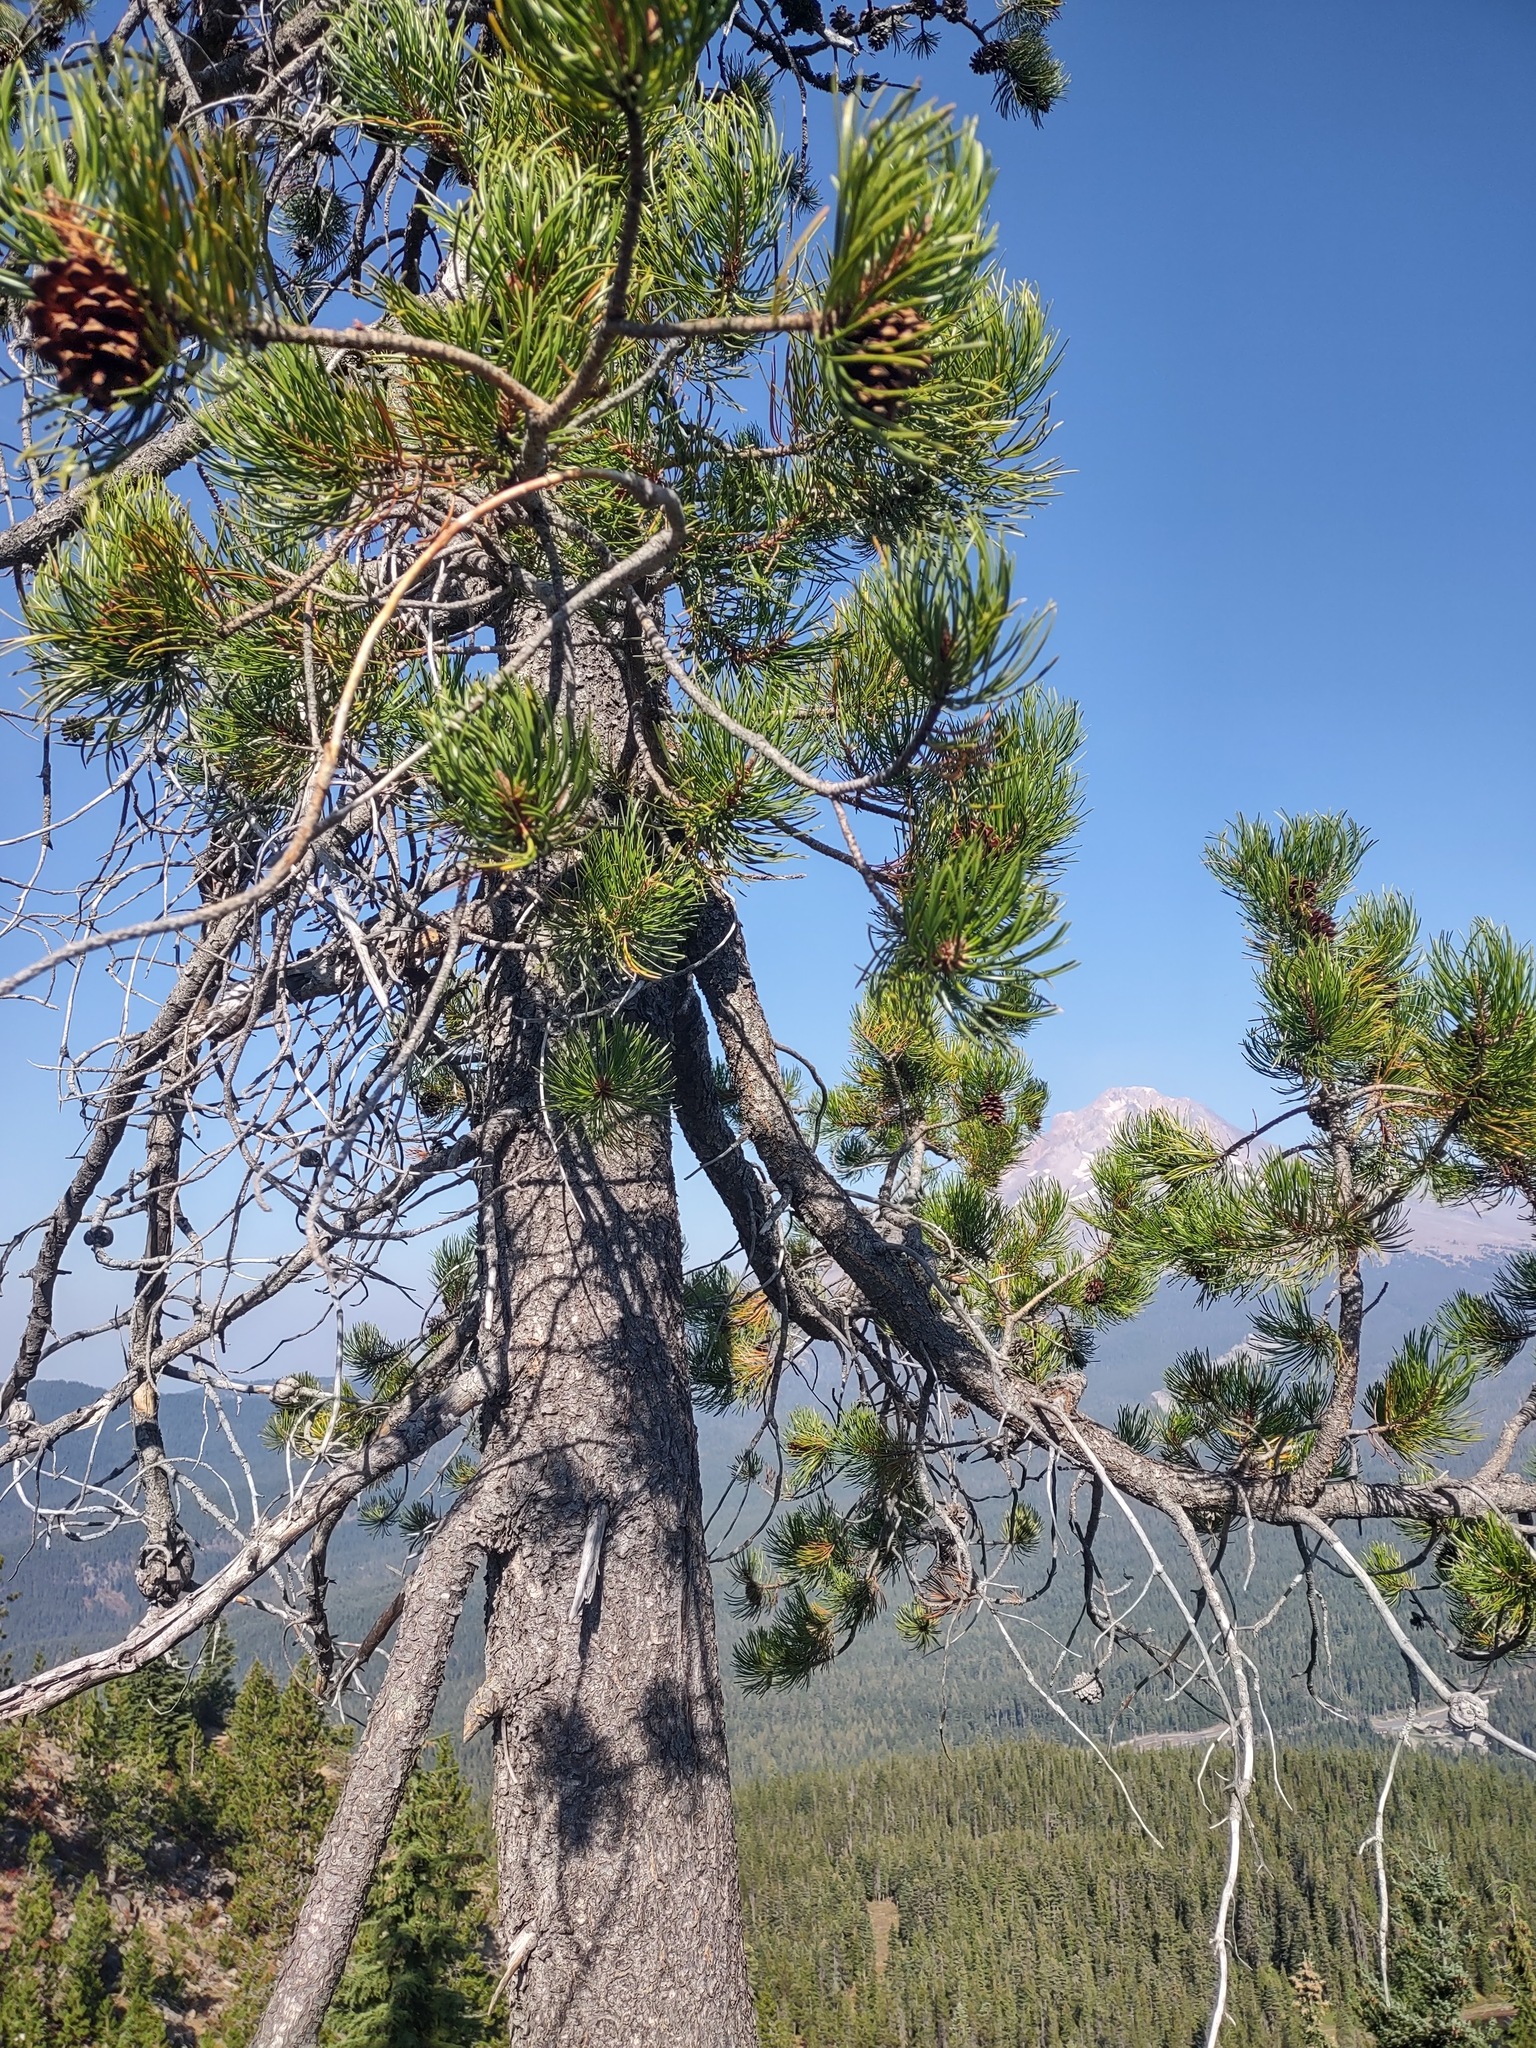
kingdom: Plantae
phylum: Tracheophyta
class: Pinopsida
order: Pinales
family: Pinaceae
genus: Pinus
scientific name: Pinus contorta
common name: Lodgepole pine
